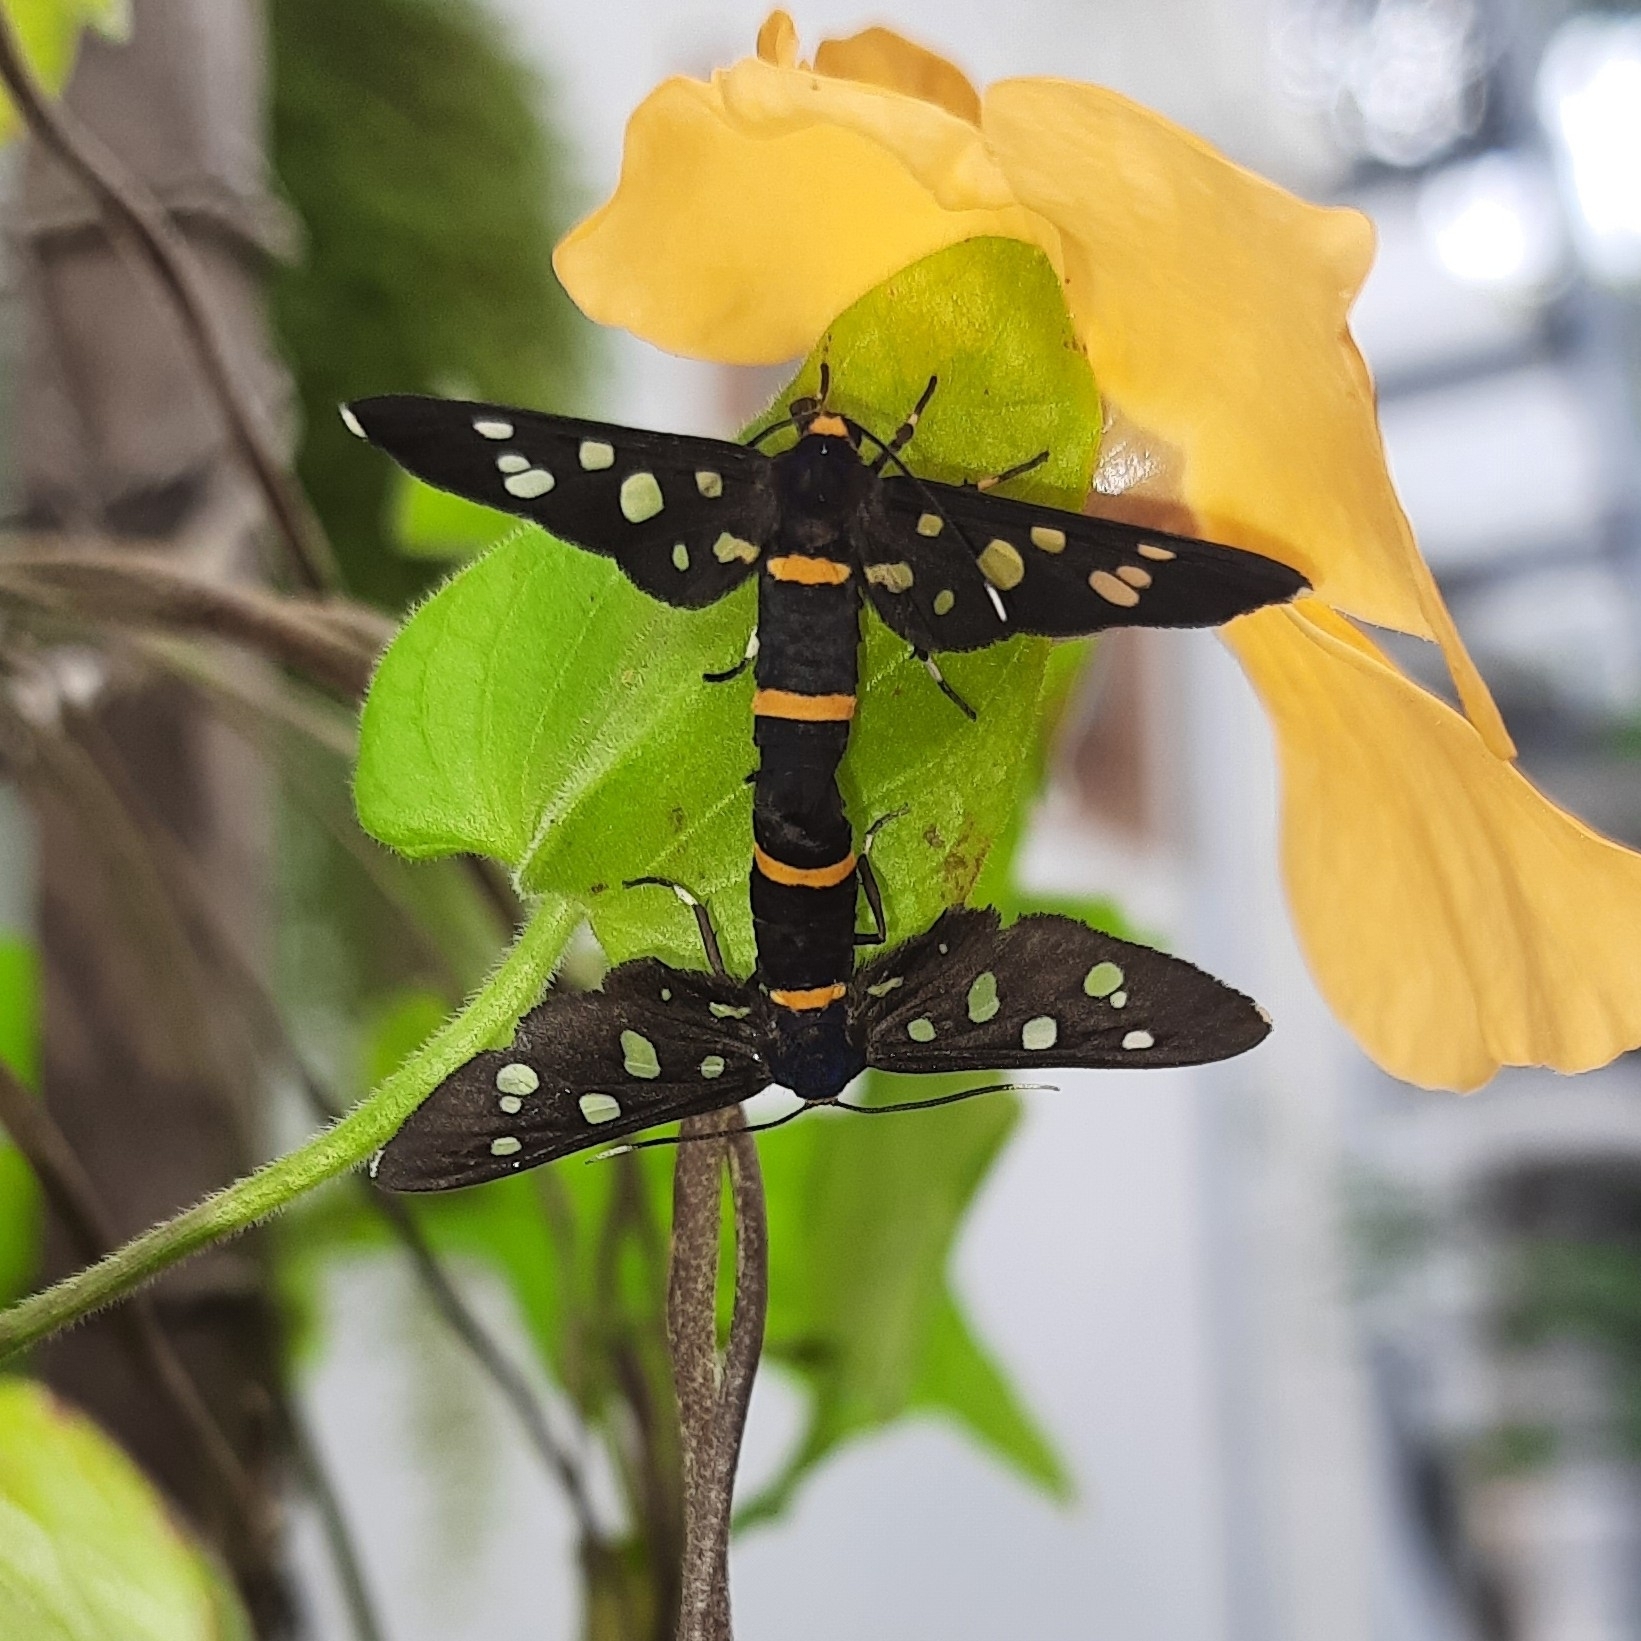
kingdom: Animalia
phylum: Arthropoda
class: Insecta
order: Lepidoptera
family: Erebidae
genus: Amata
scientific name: Amata cyssea
